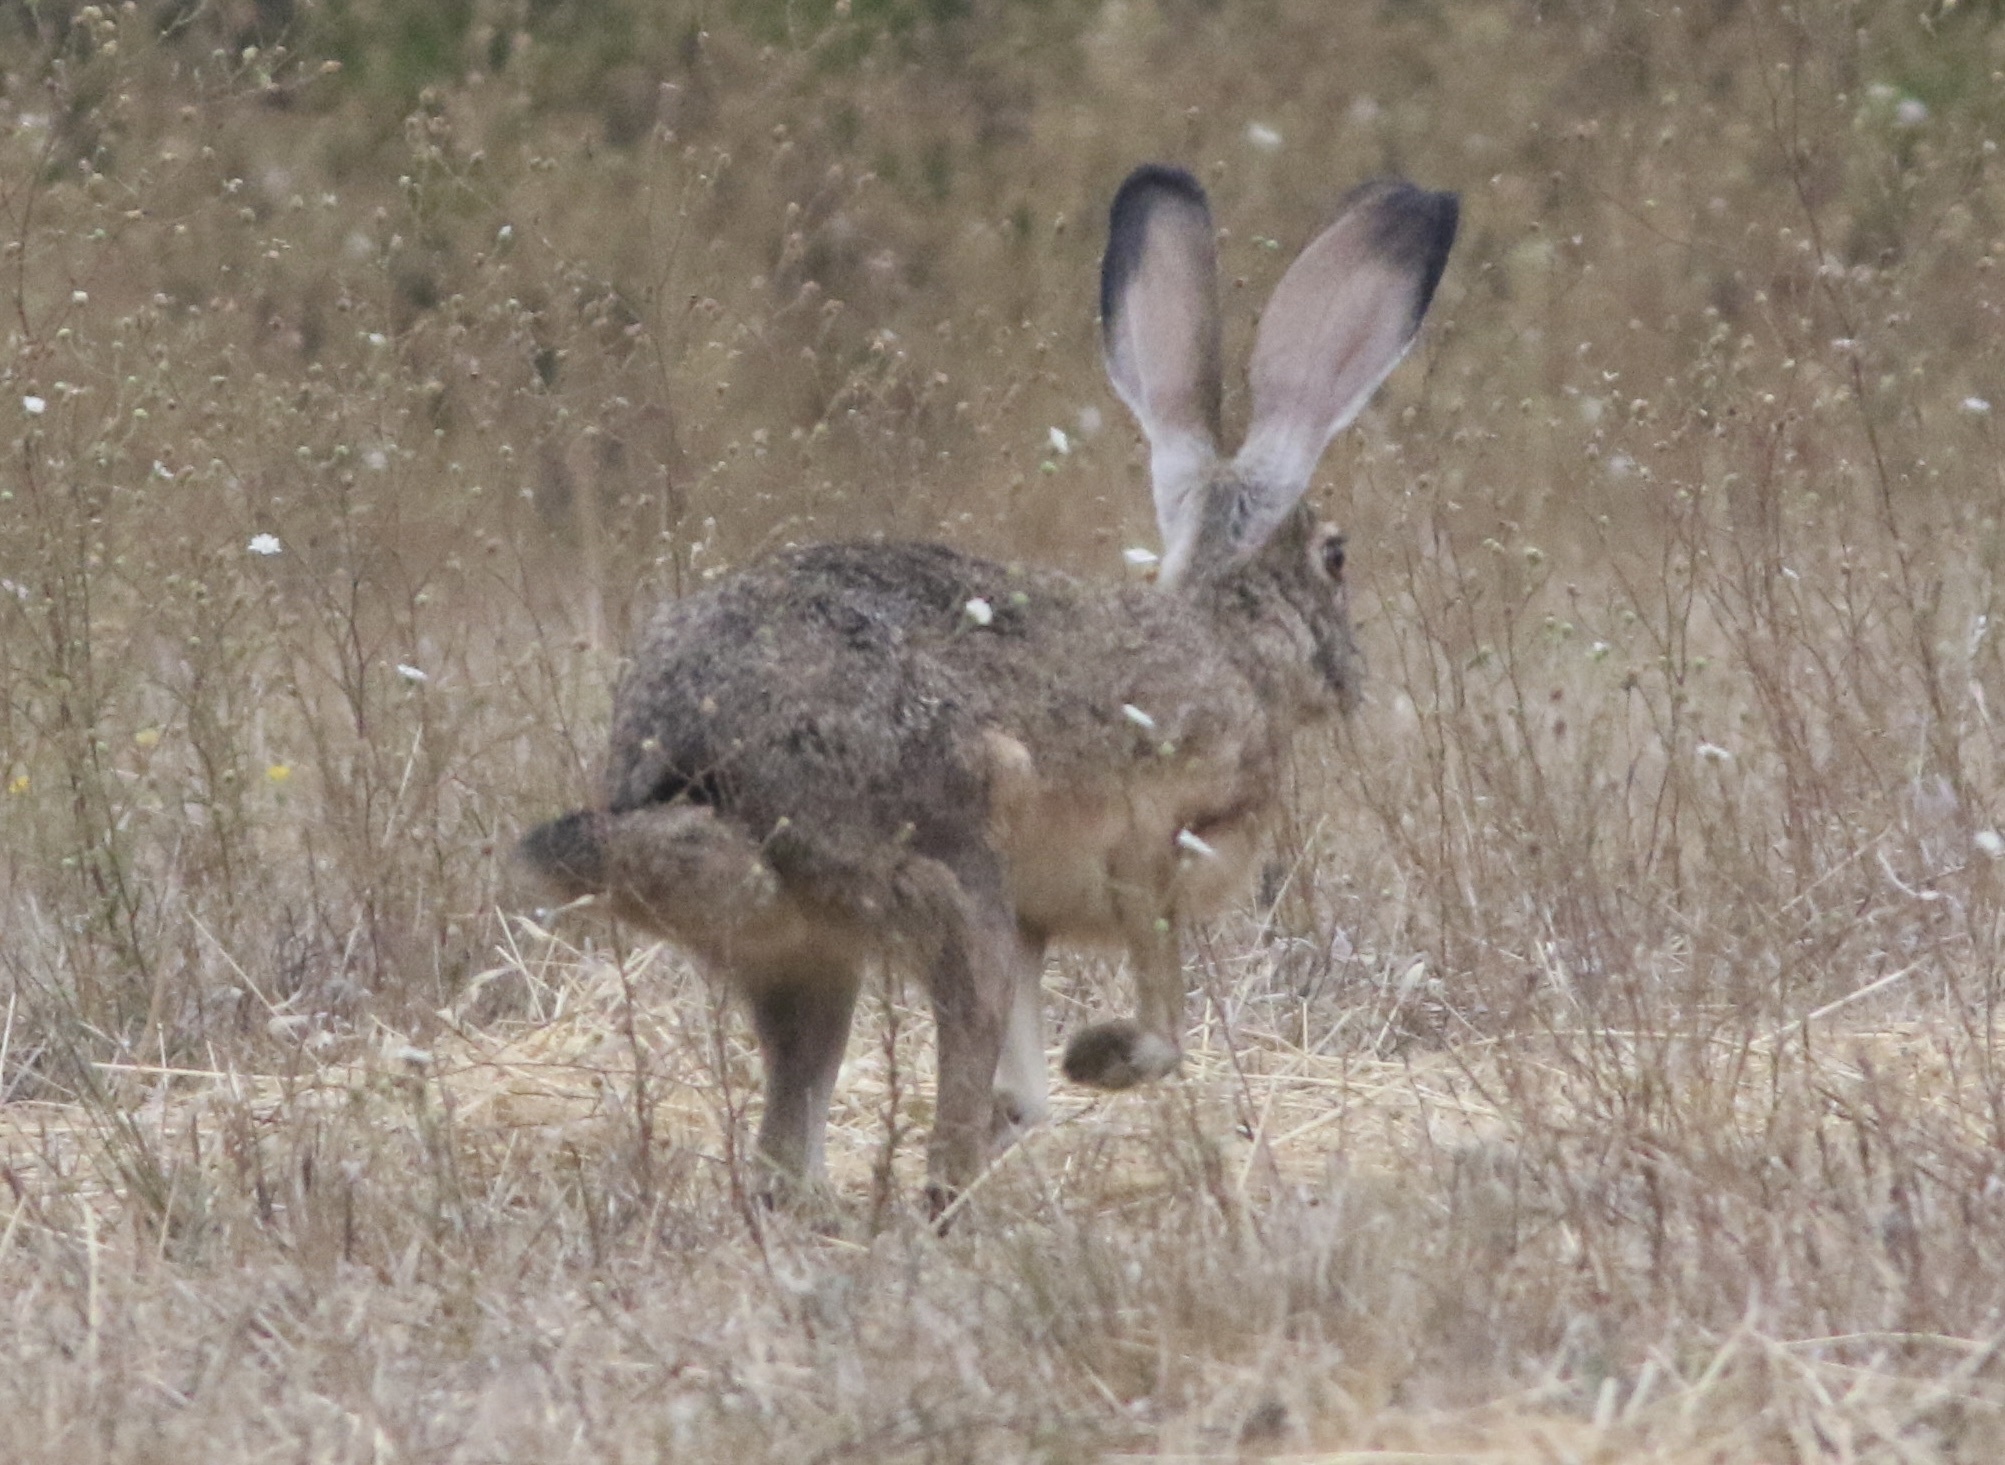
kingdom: Animalia
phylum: Chordata
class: Mammalia
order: Lagomorpha
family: Leporidae
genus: Lepus
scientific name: Lepus californicus
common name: Black-tailed jackrabbit
